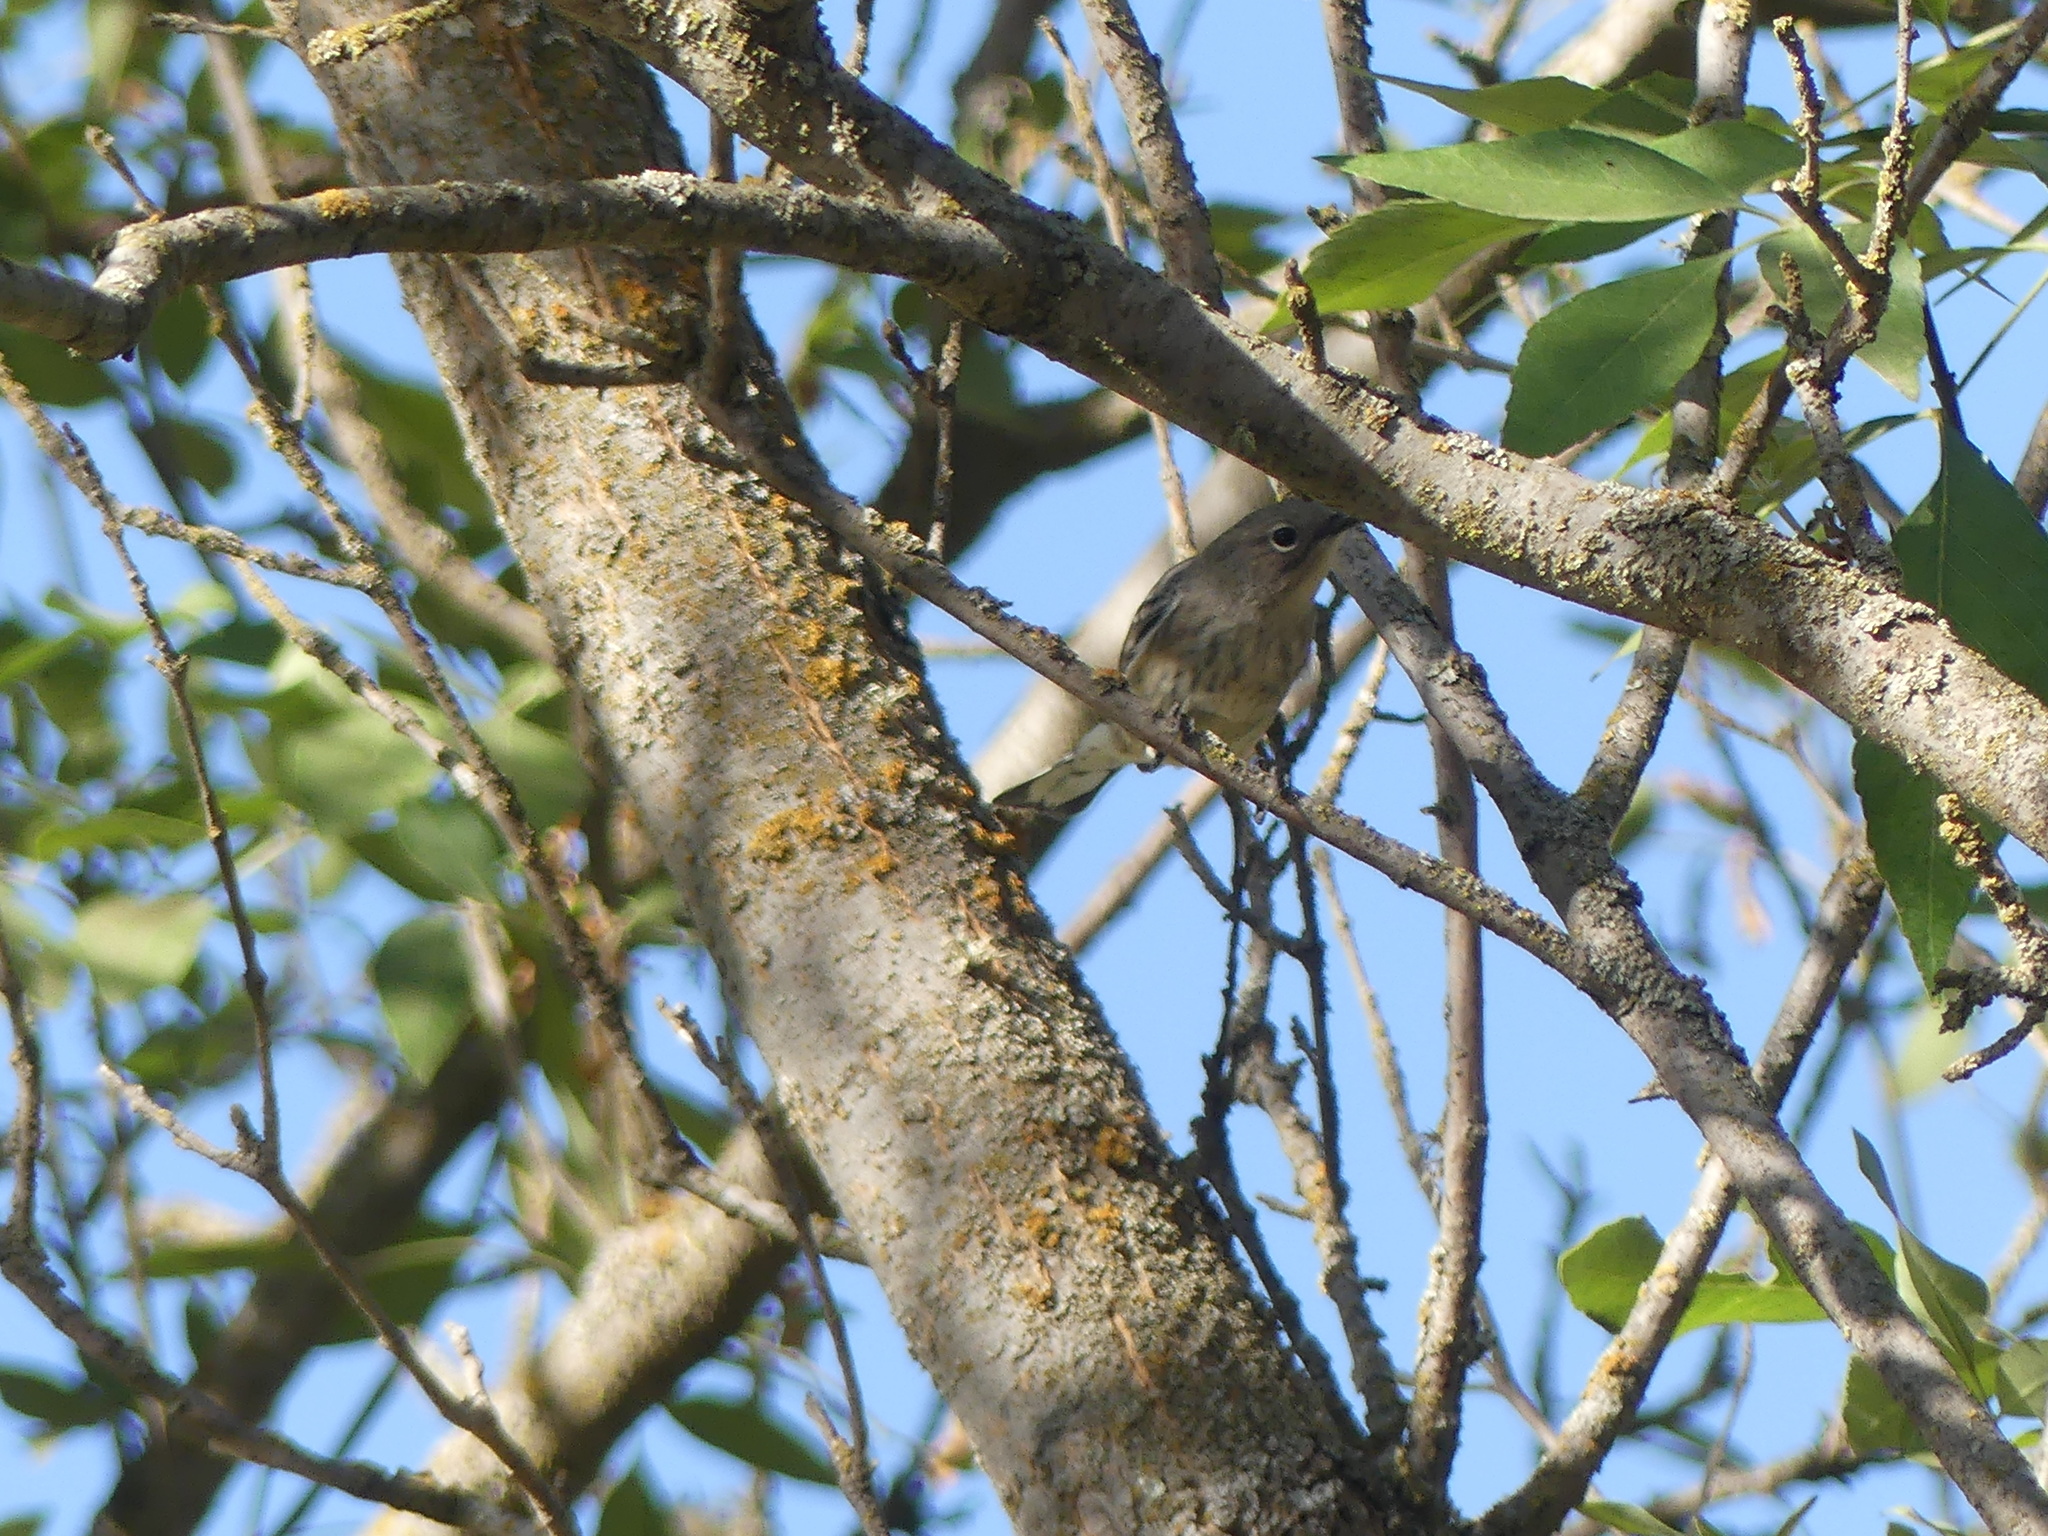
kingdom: Animalia
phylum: Chordata
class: Aves
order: Passeriformes
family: Parulidae
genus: Setophaga
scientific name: Setophaga coronata
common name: Myrtle warbler
